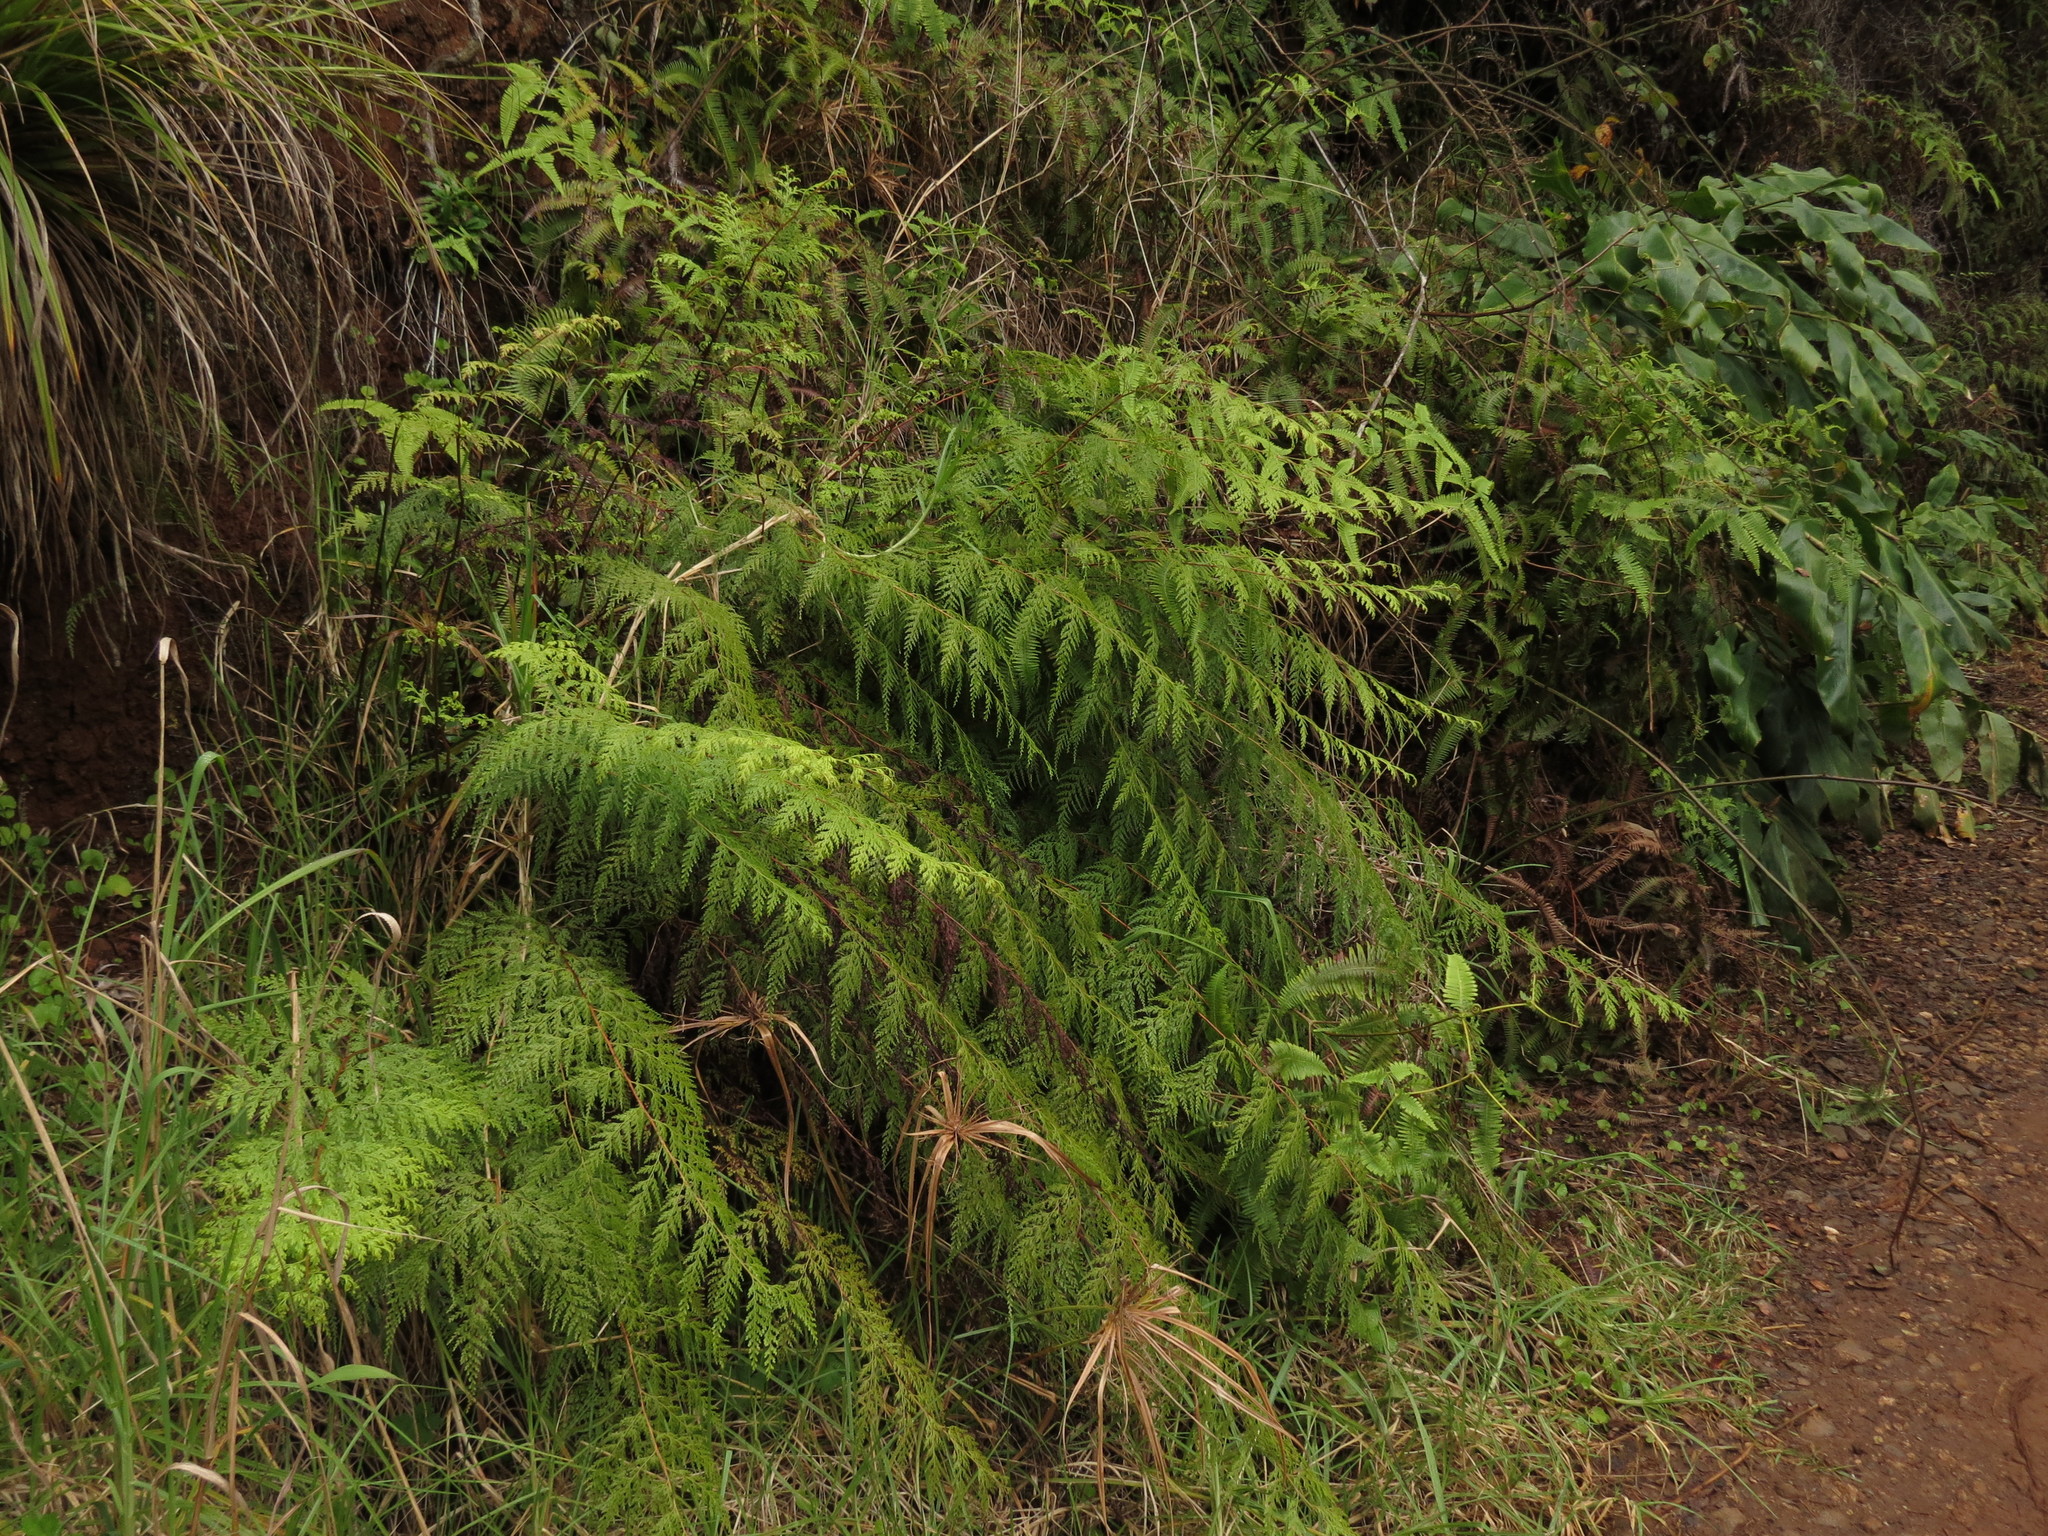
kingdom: Plantae
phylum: Tracheophyta
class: Polypodiopsida
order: Polypodiales
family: Lindsaeaceae
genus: Odontosoria
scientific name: Odontosoria chinensis
